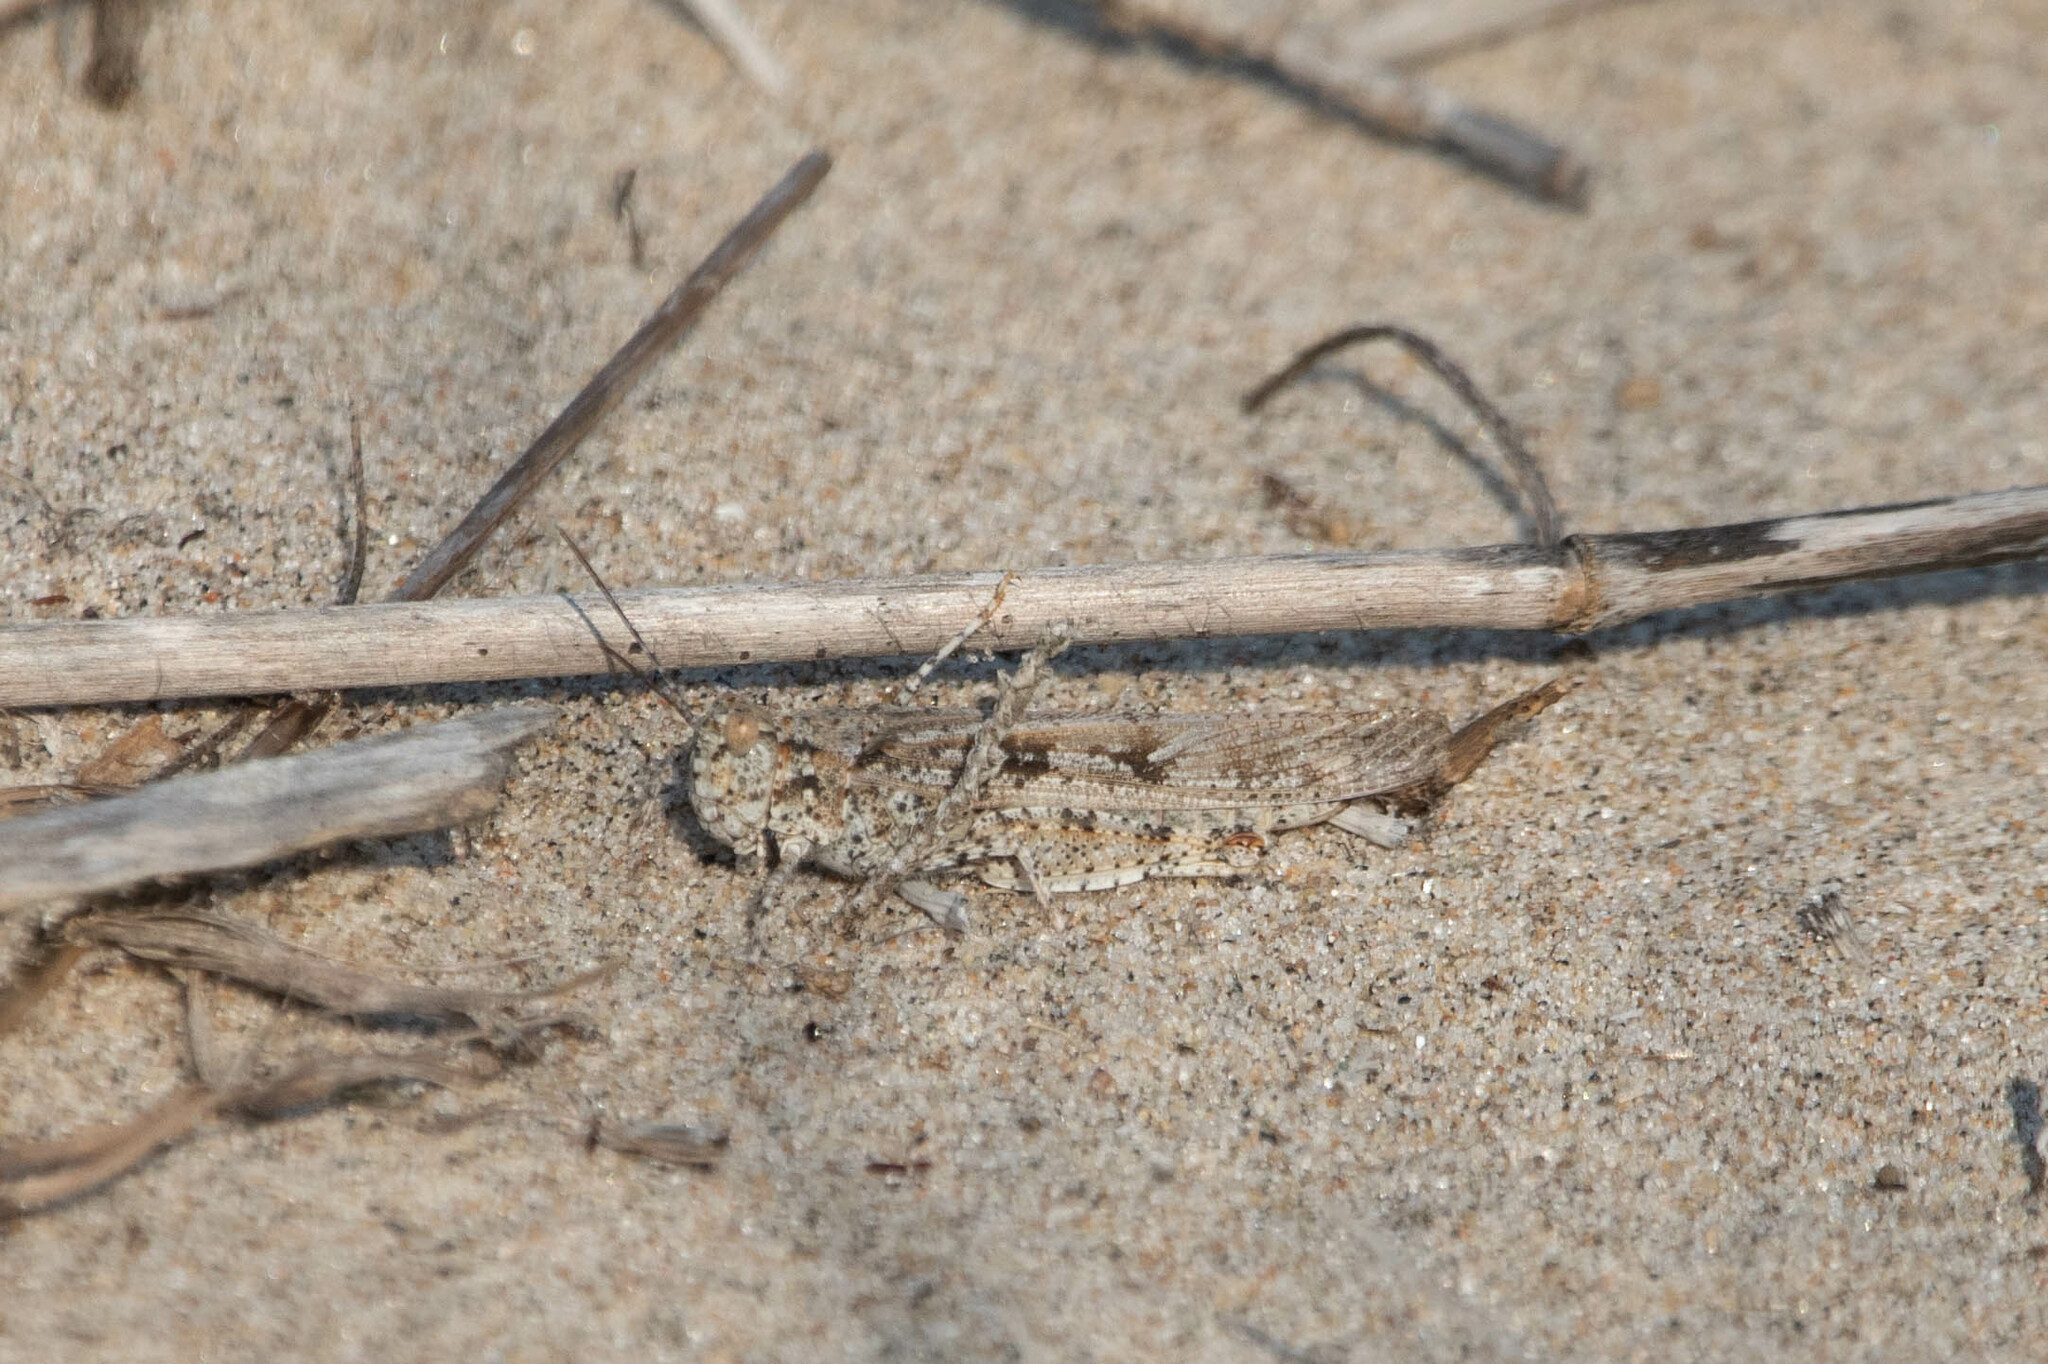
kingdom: Animalia
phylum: Arthropoda
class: Insecta
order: Orthoptera
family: Acrididae
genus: Trimerotropis
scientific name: Trimerotropis maritima
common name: Seaside locust
